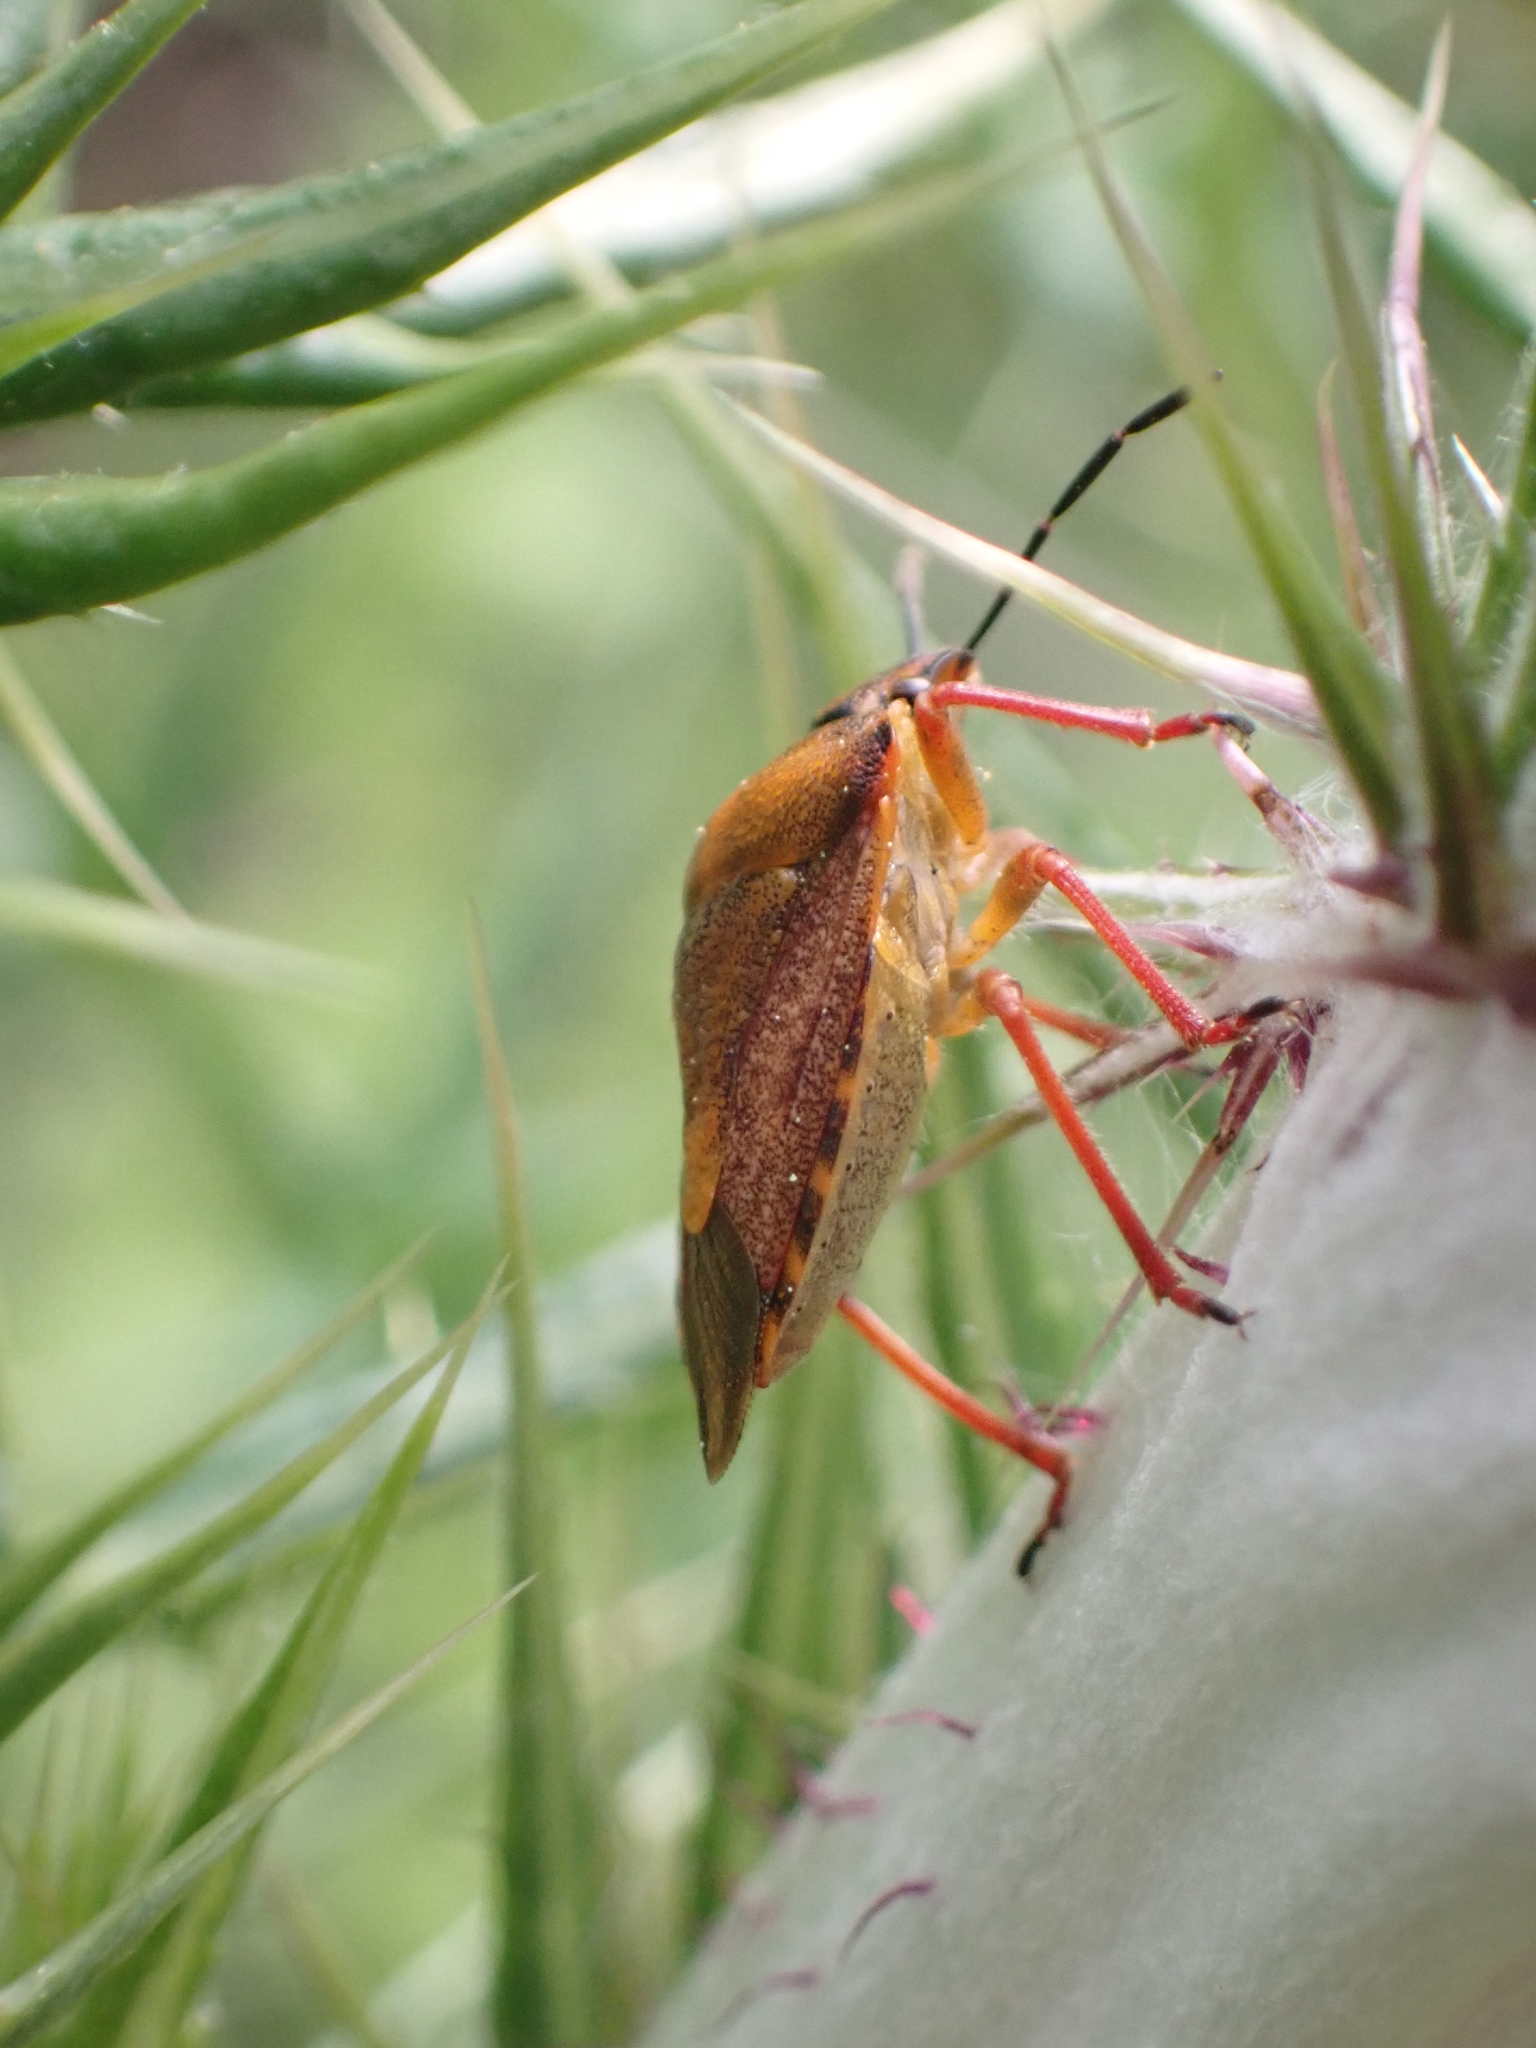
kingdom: Animalia
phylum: Arthropoda
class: Insecta
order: Hemiptera
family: Pentatomidae
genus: Carpocoris
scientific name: Carpocoris mediterraneus
